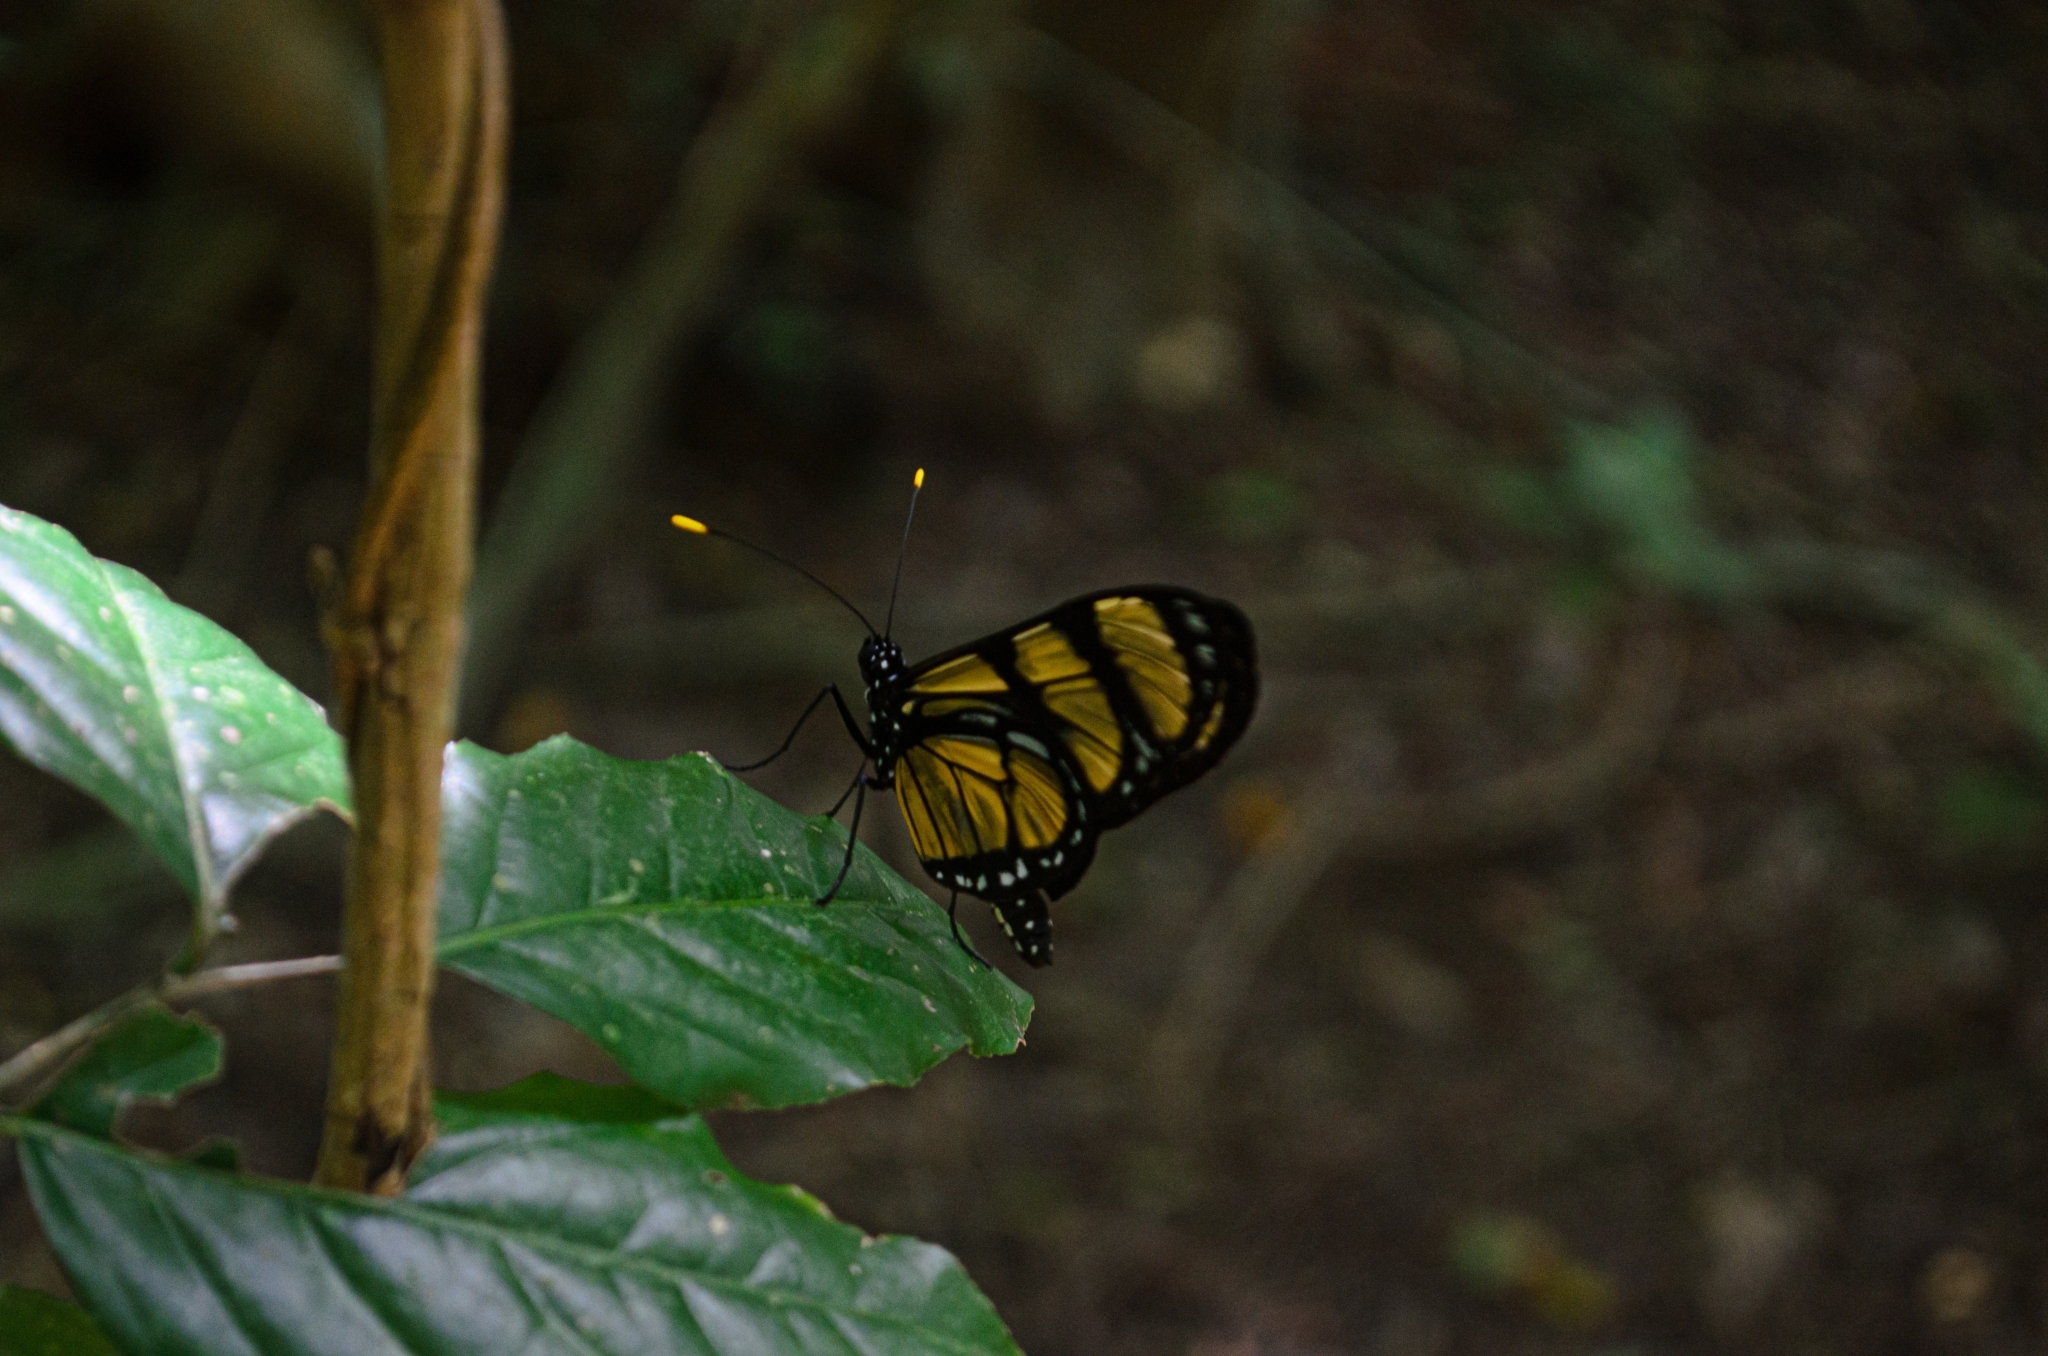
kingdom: Animalia
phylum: Arthropoda
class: Insecta
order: Lepidoptera
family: Nymphalidae
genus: Methona
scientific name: Methona themisto
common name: Themisto amberwing
